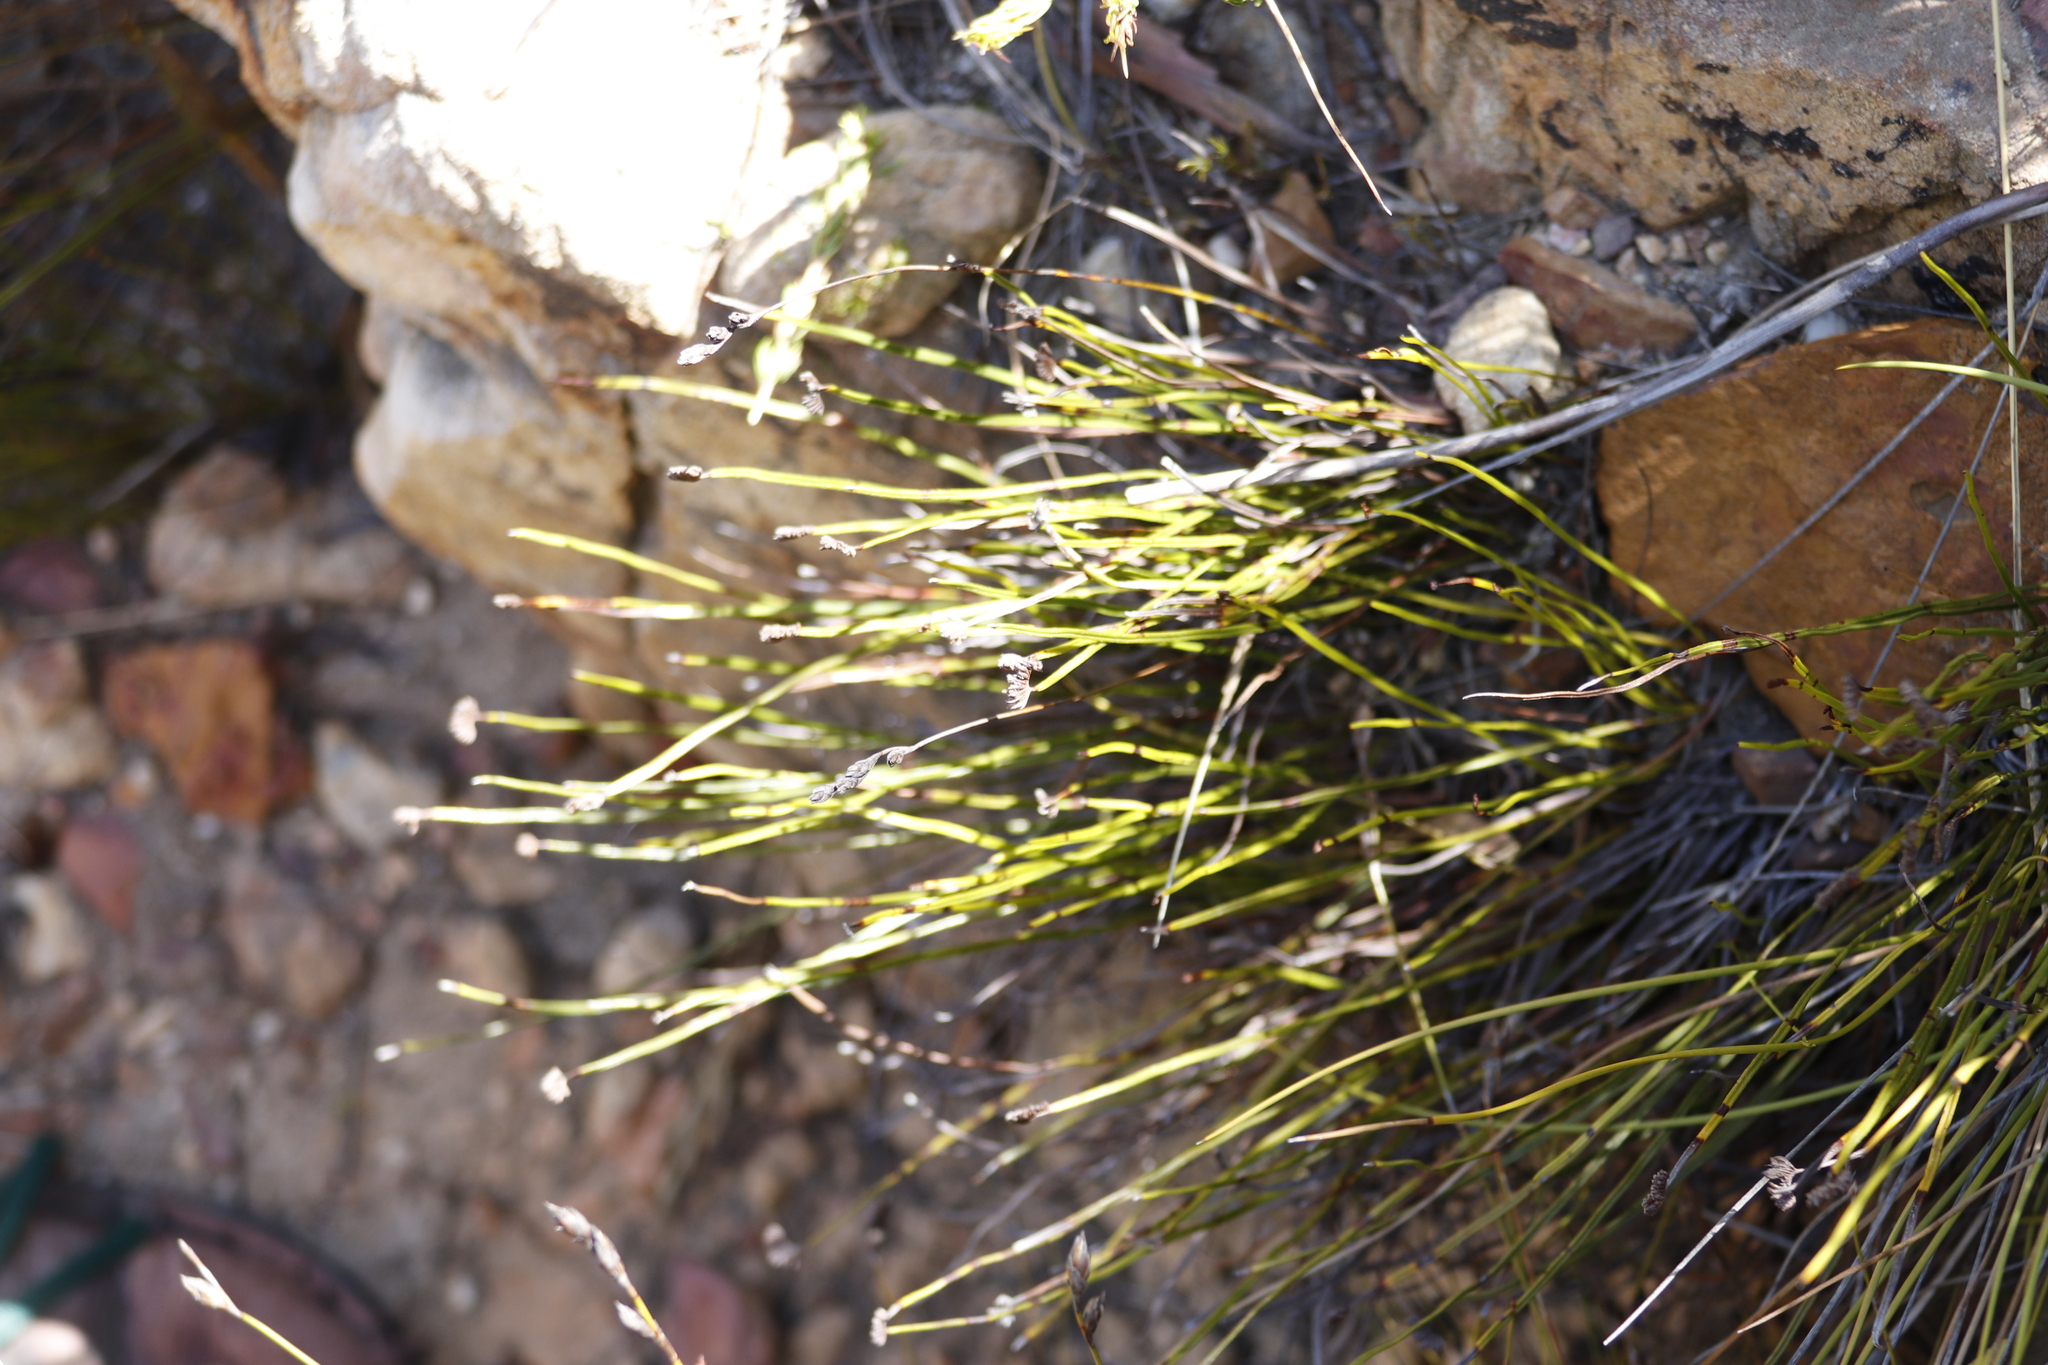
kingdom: Plantae
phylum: Tracheophyta
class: Polypodiopsida
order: Schizaeales
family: Schizaeaceae
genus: Schizaea
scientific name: Schizaea pectinata
